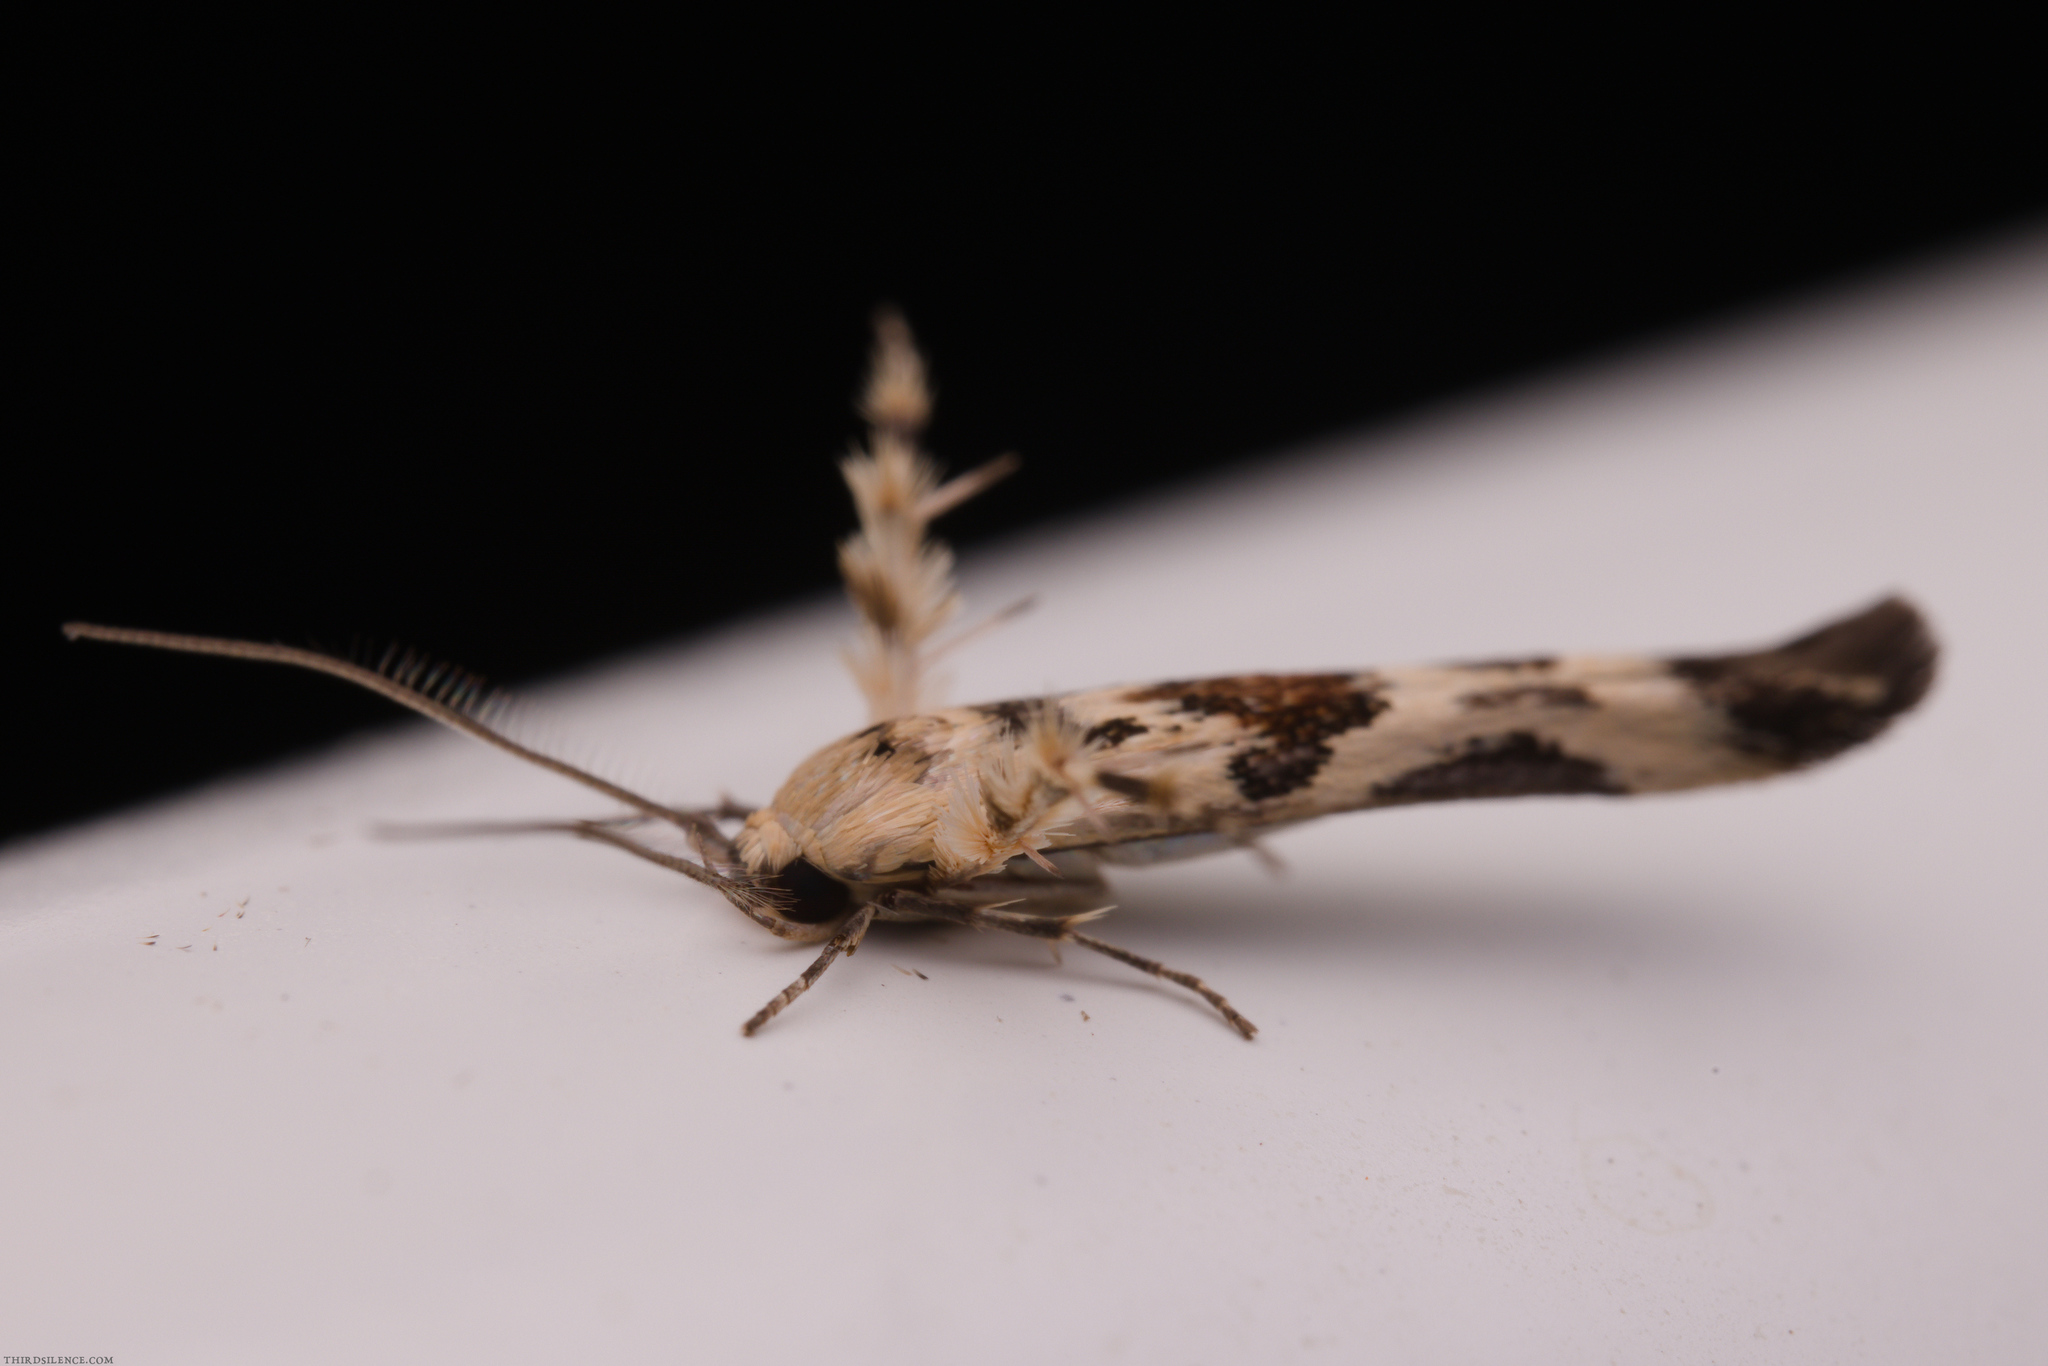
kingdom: Animalia
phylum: Arthropoda
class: Insecta
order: Lepidoptera
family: Stathmopodidae
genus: Stathmopoda
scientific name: Stathmopoda melanochra
